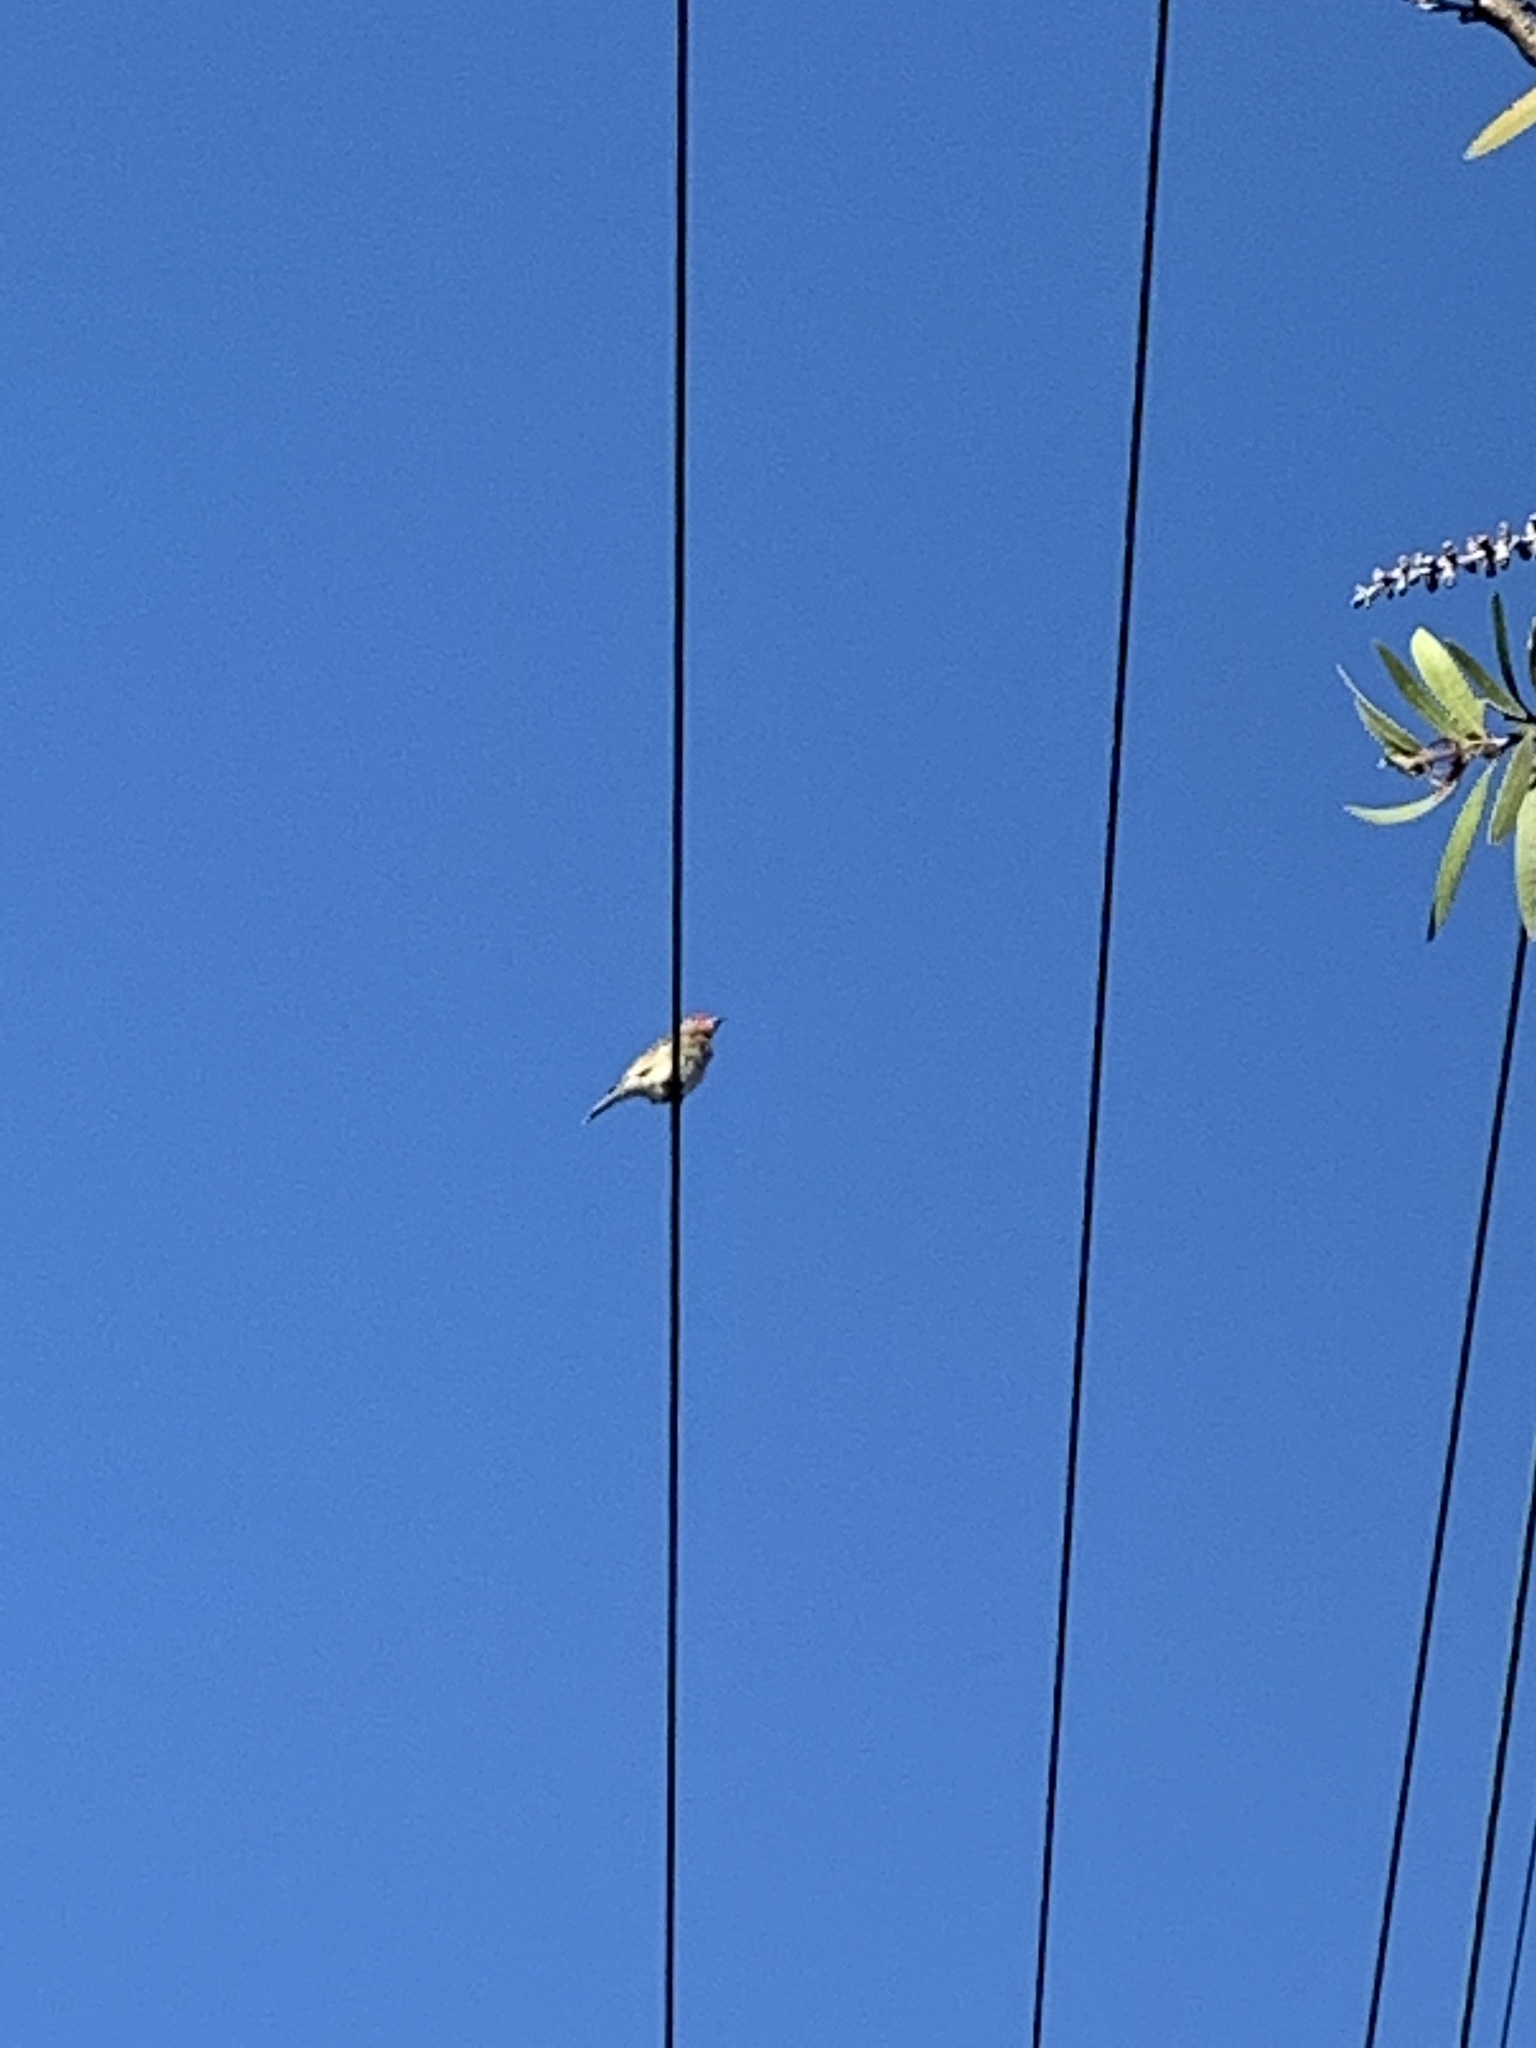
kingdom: Animalia
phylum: Chordata
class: Aves
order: Passeriformes
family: Oriolidae
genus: Sphecotheres
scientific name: Sphecotheres vieilloti
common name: Australasian figbird
